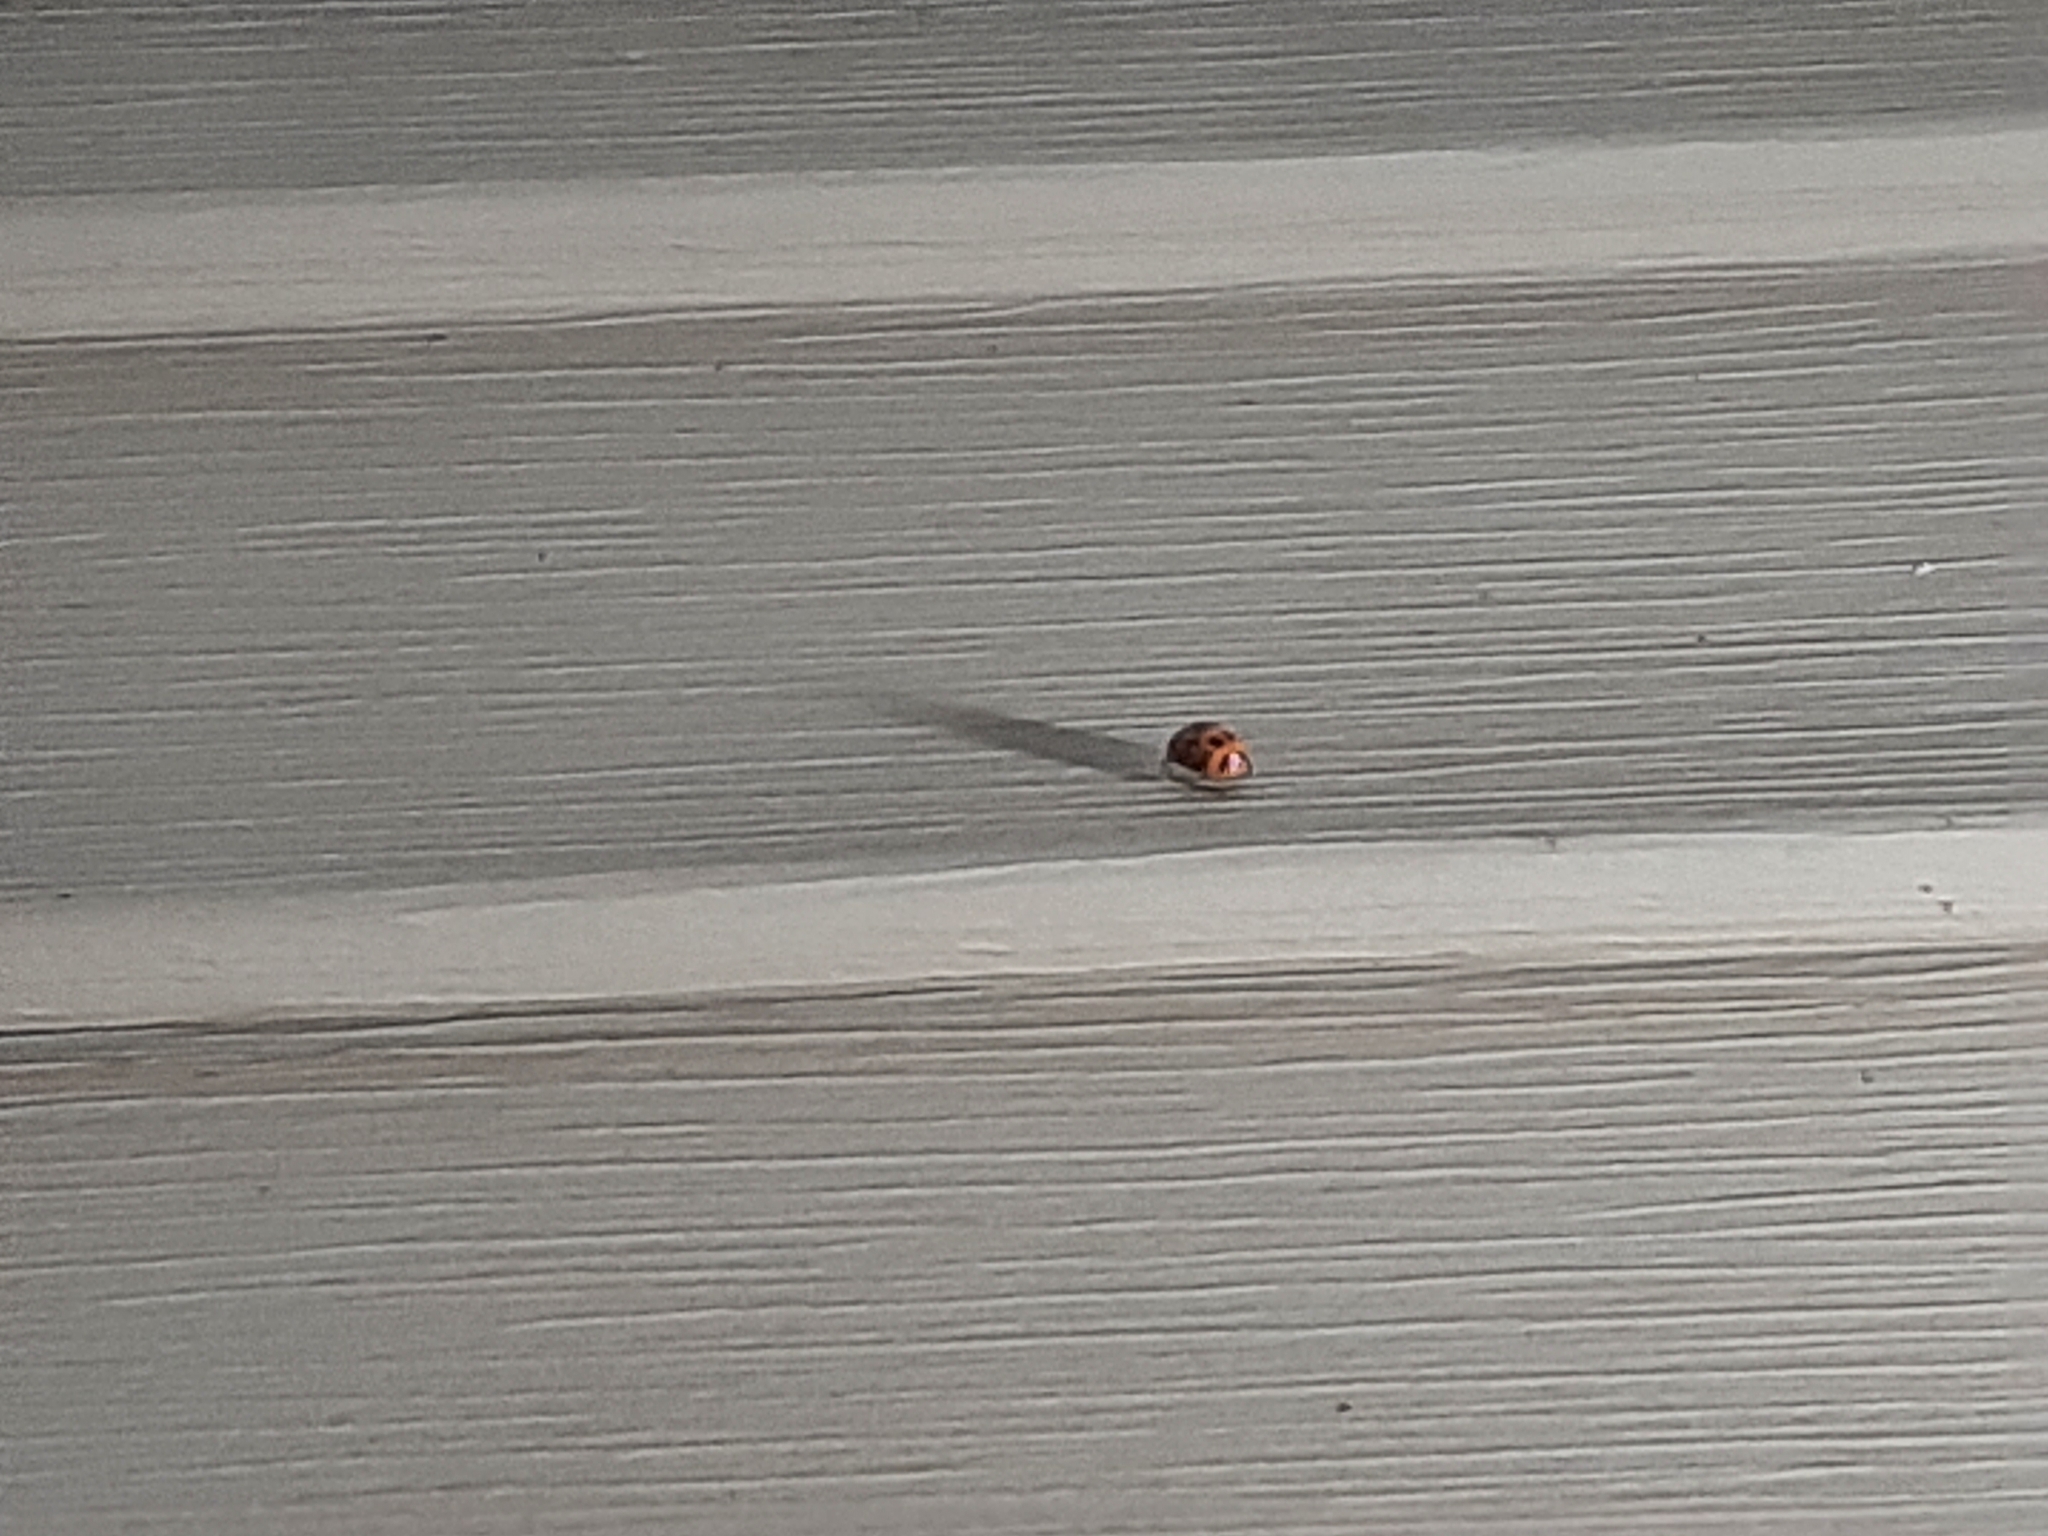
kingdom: Animalia
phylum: Arthropoda
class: Insecta
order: Coleoptera
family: Coccinellidae
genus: Harmonia
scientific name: Harmonia axyridis
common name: Harlequin ladybird
